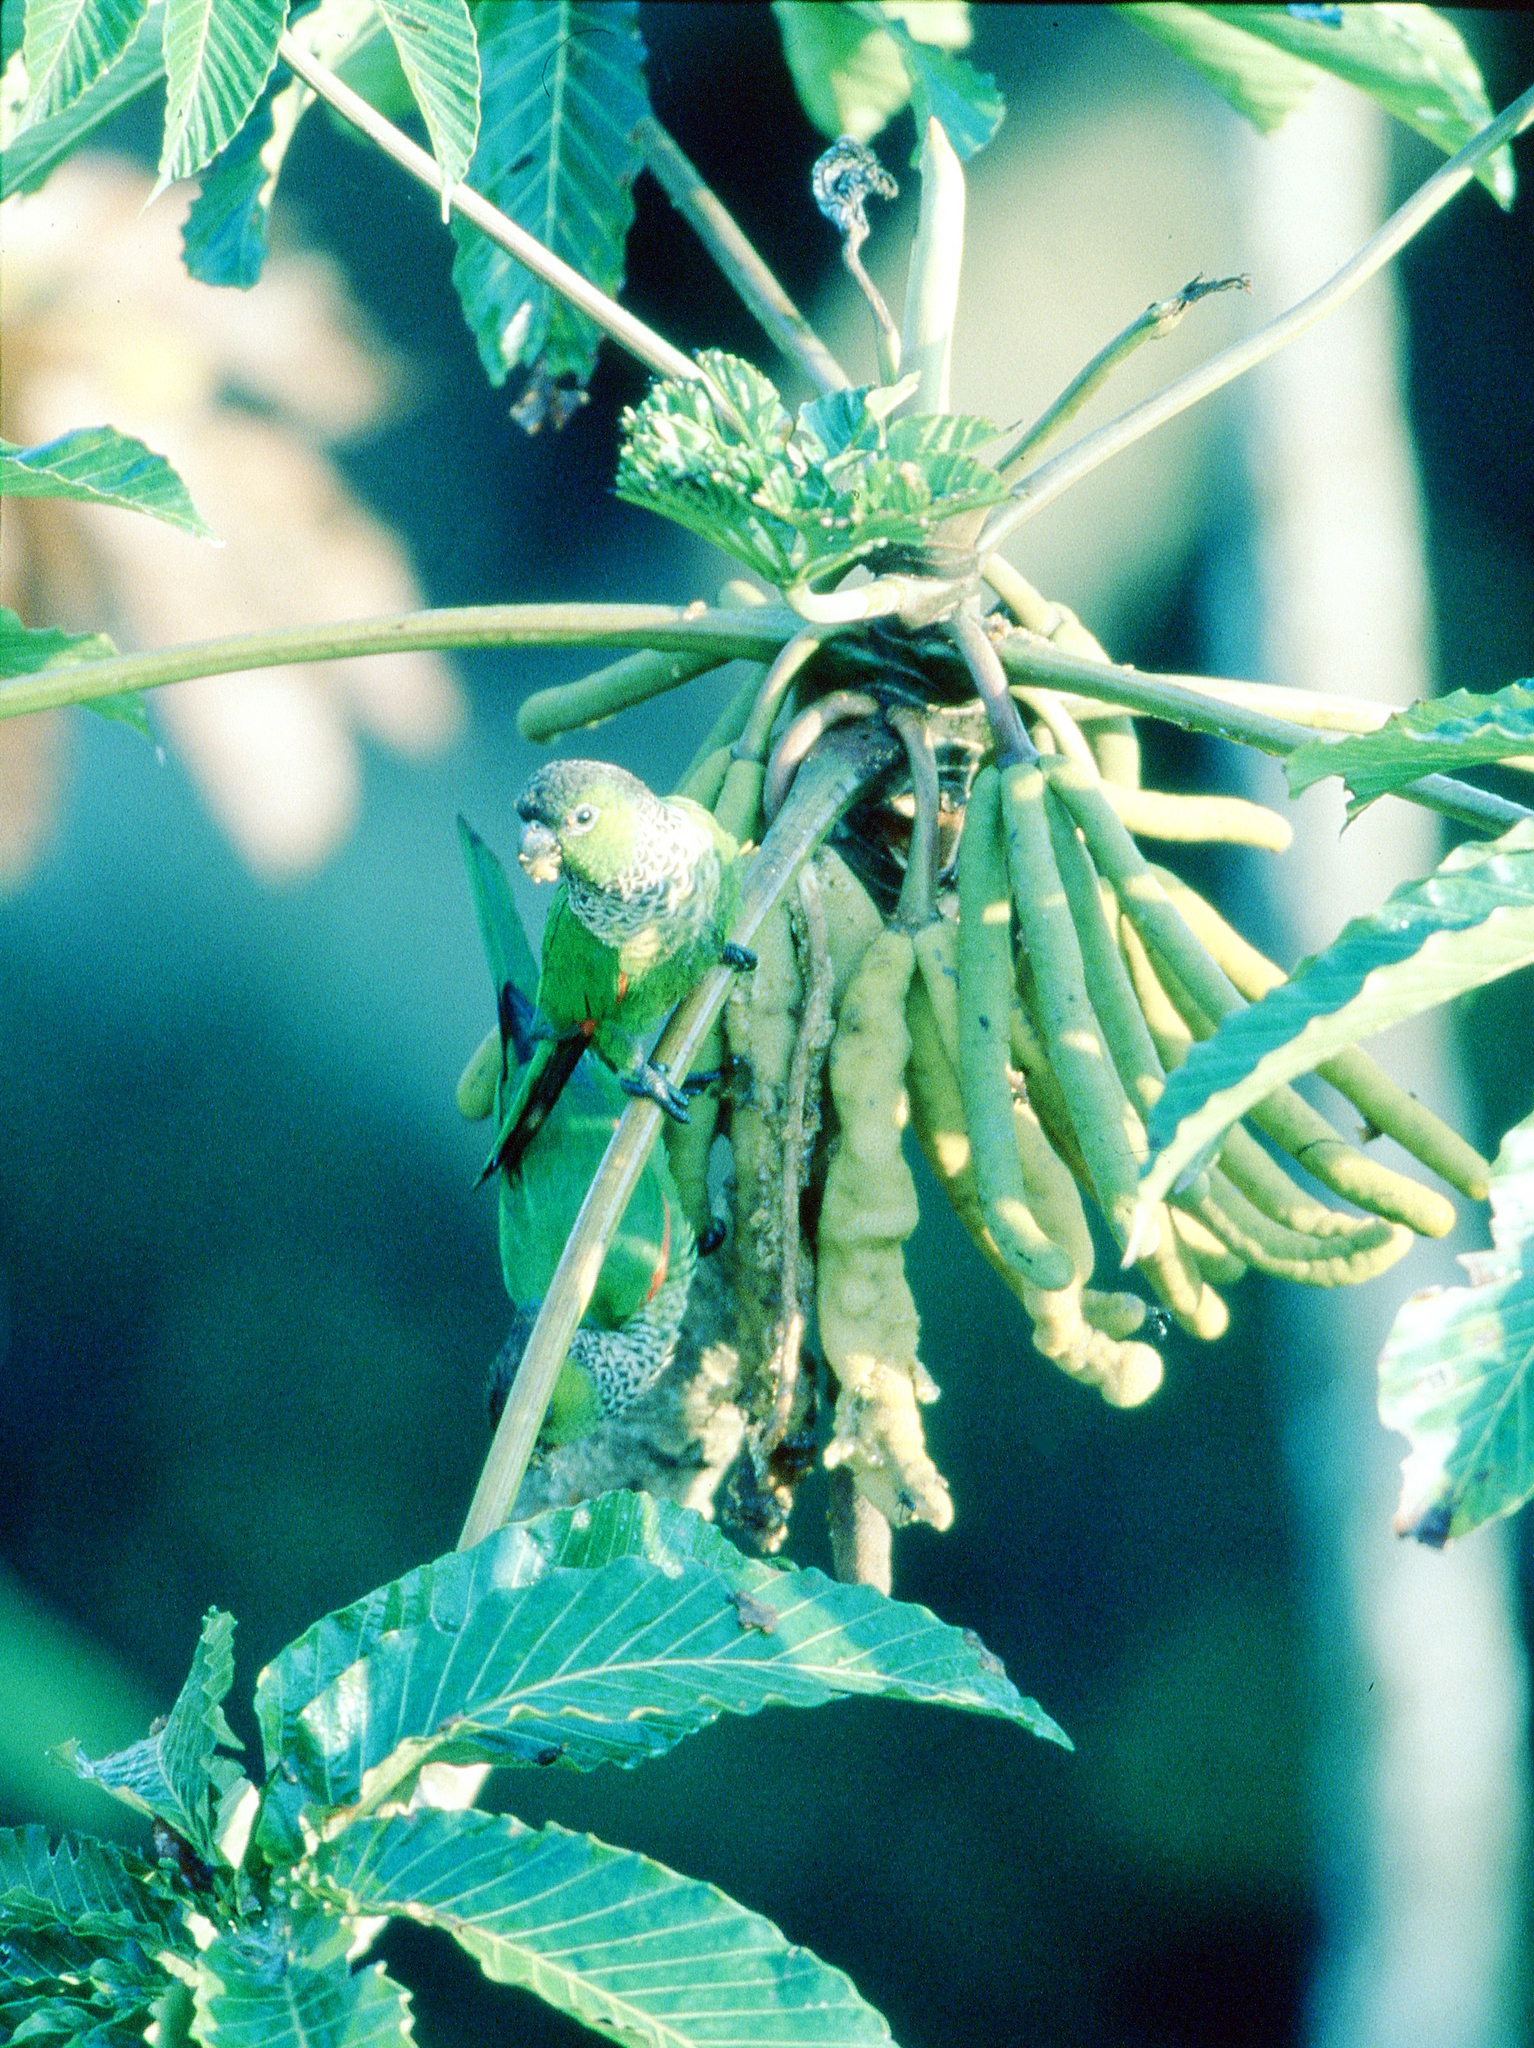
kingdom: Animalia
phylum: Chordata
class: Aves
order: Psittaciformes
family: Psittacidae
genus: Pyrrhura
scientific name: Pyrrhura rupicola
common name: Black-capped parakeet
